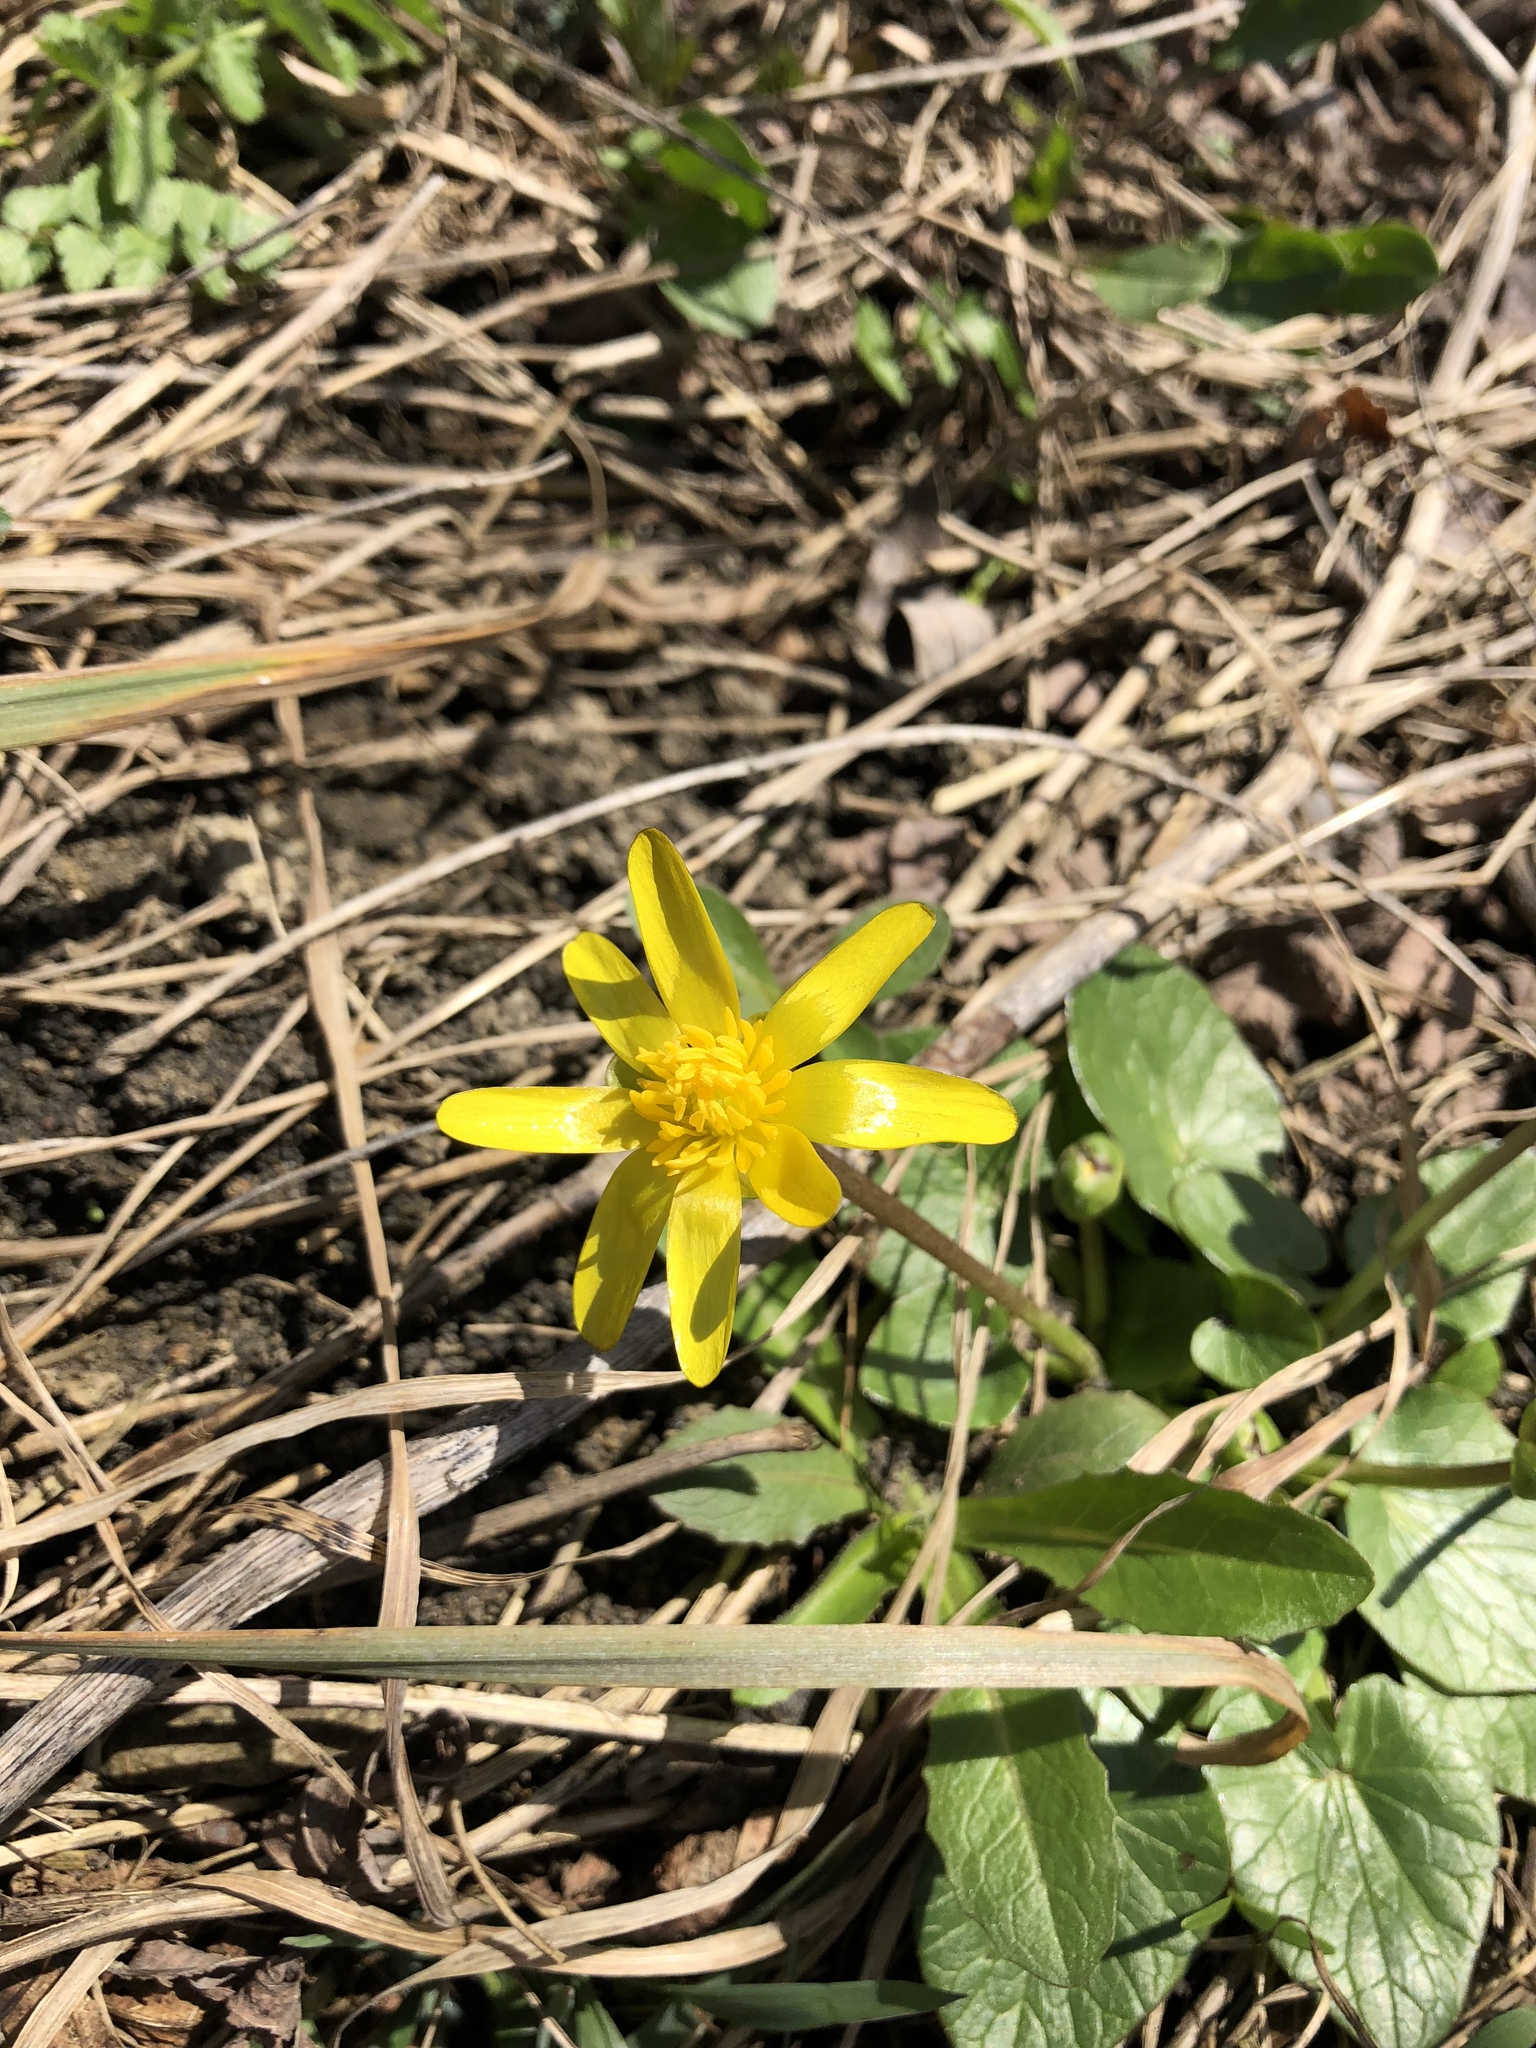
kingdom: Plantae
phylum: Tracheophyta
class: Magnoliopsida
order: Ranunculales
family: Ranunculaceae
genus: Ficaria
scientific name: Ficaria verna
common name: Lesser celandine
